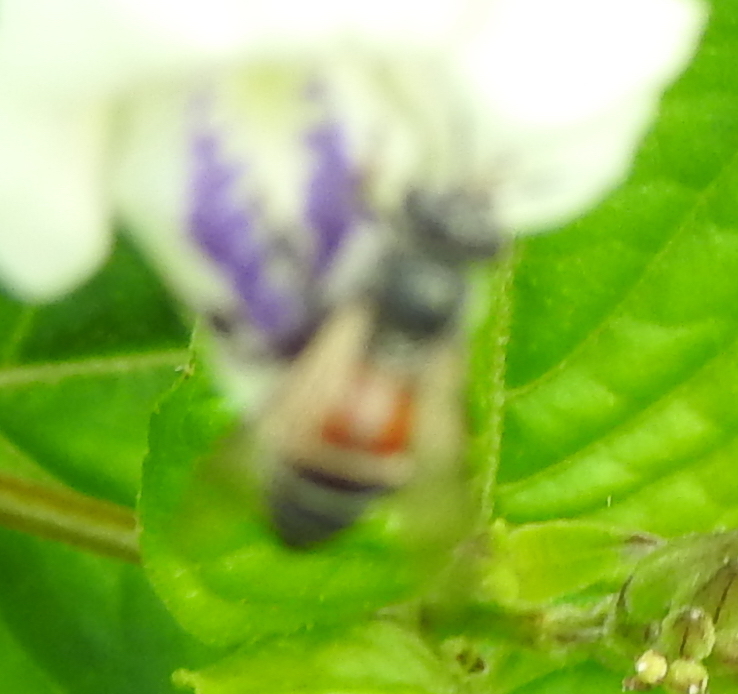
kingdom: Animalia
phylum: Arthropoda
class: Insecta
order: Hymenoptera
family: Apidae
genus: Apis
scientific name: Apis florea
